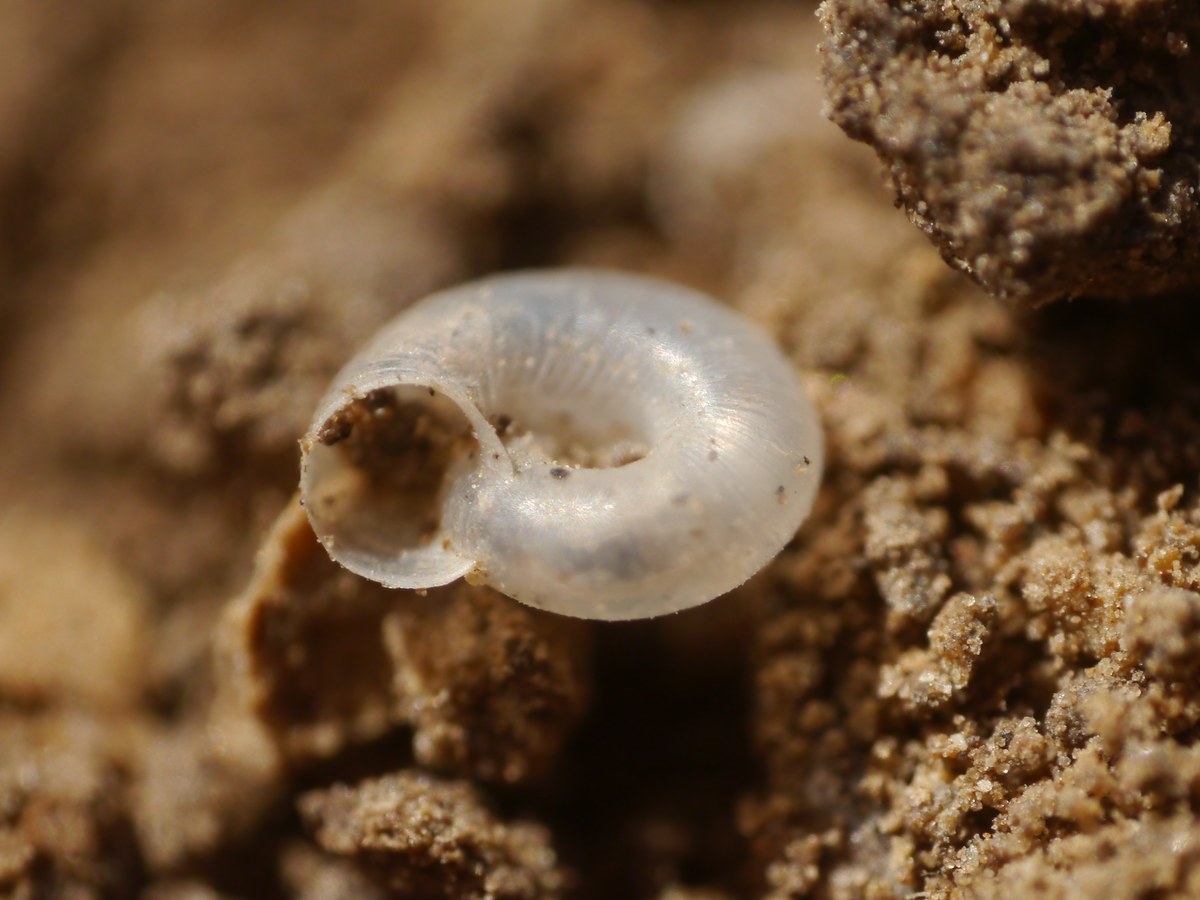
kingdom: Animalia
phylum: Mollusca
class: Gastropoda
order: Stylommatophora
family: Valloniidae
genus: Vallonia
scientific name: Vallonia
